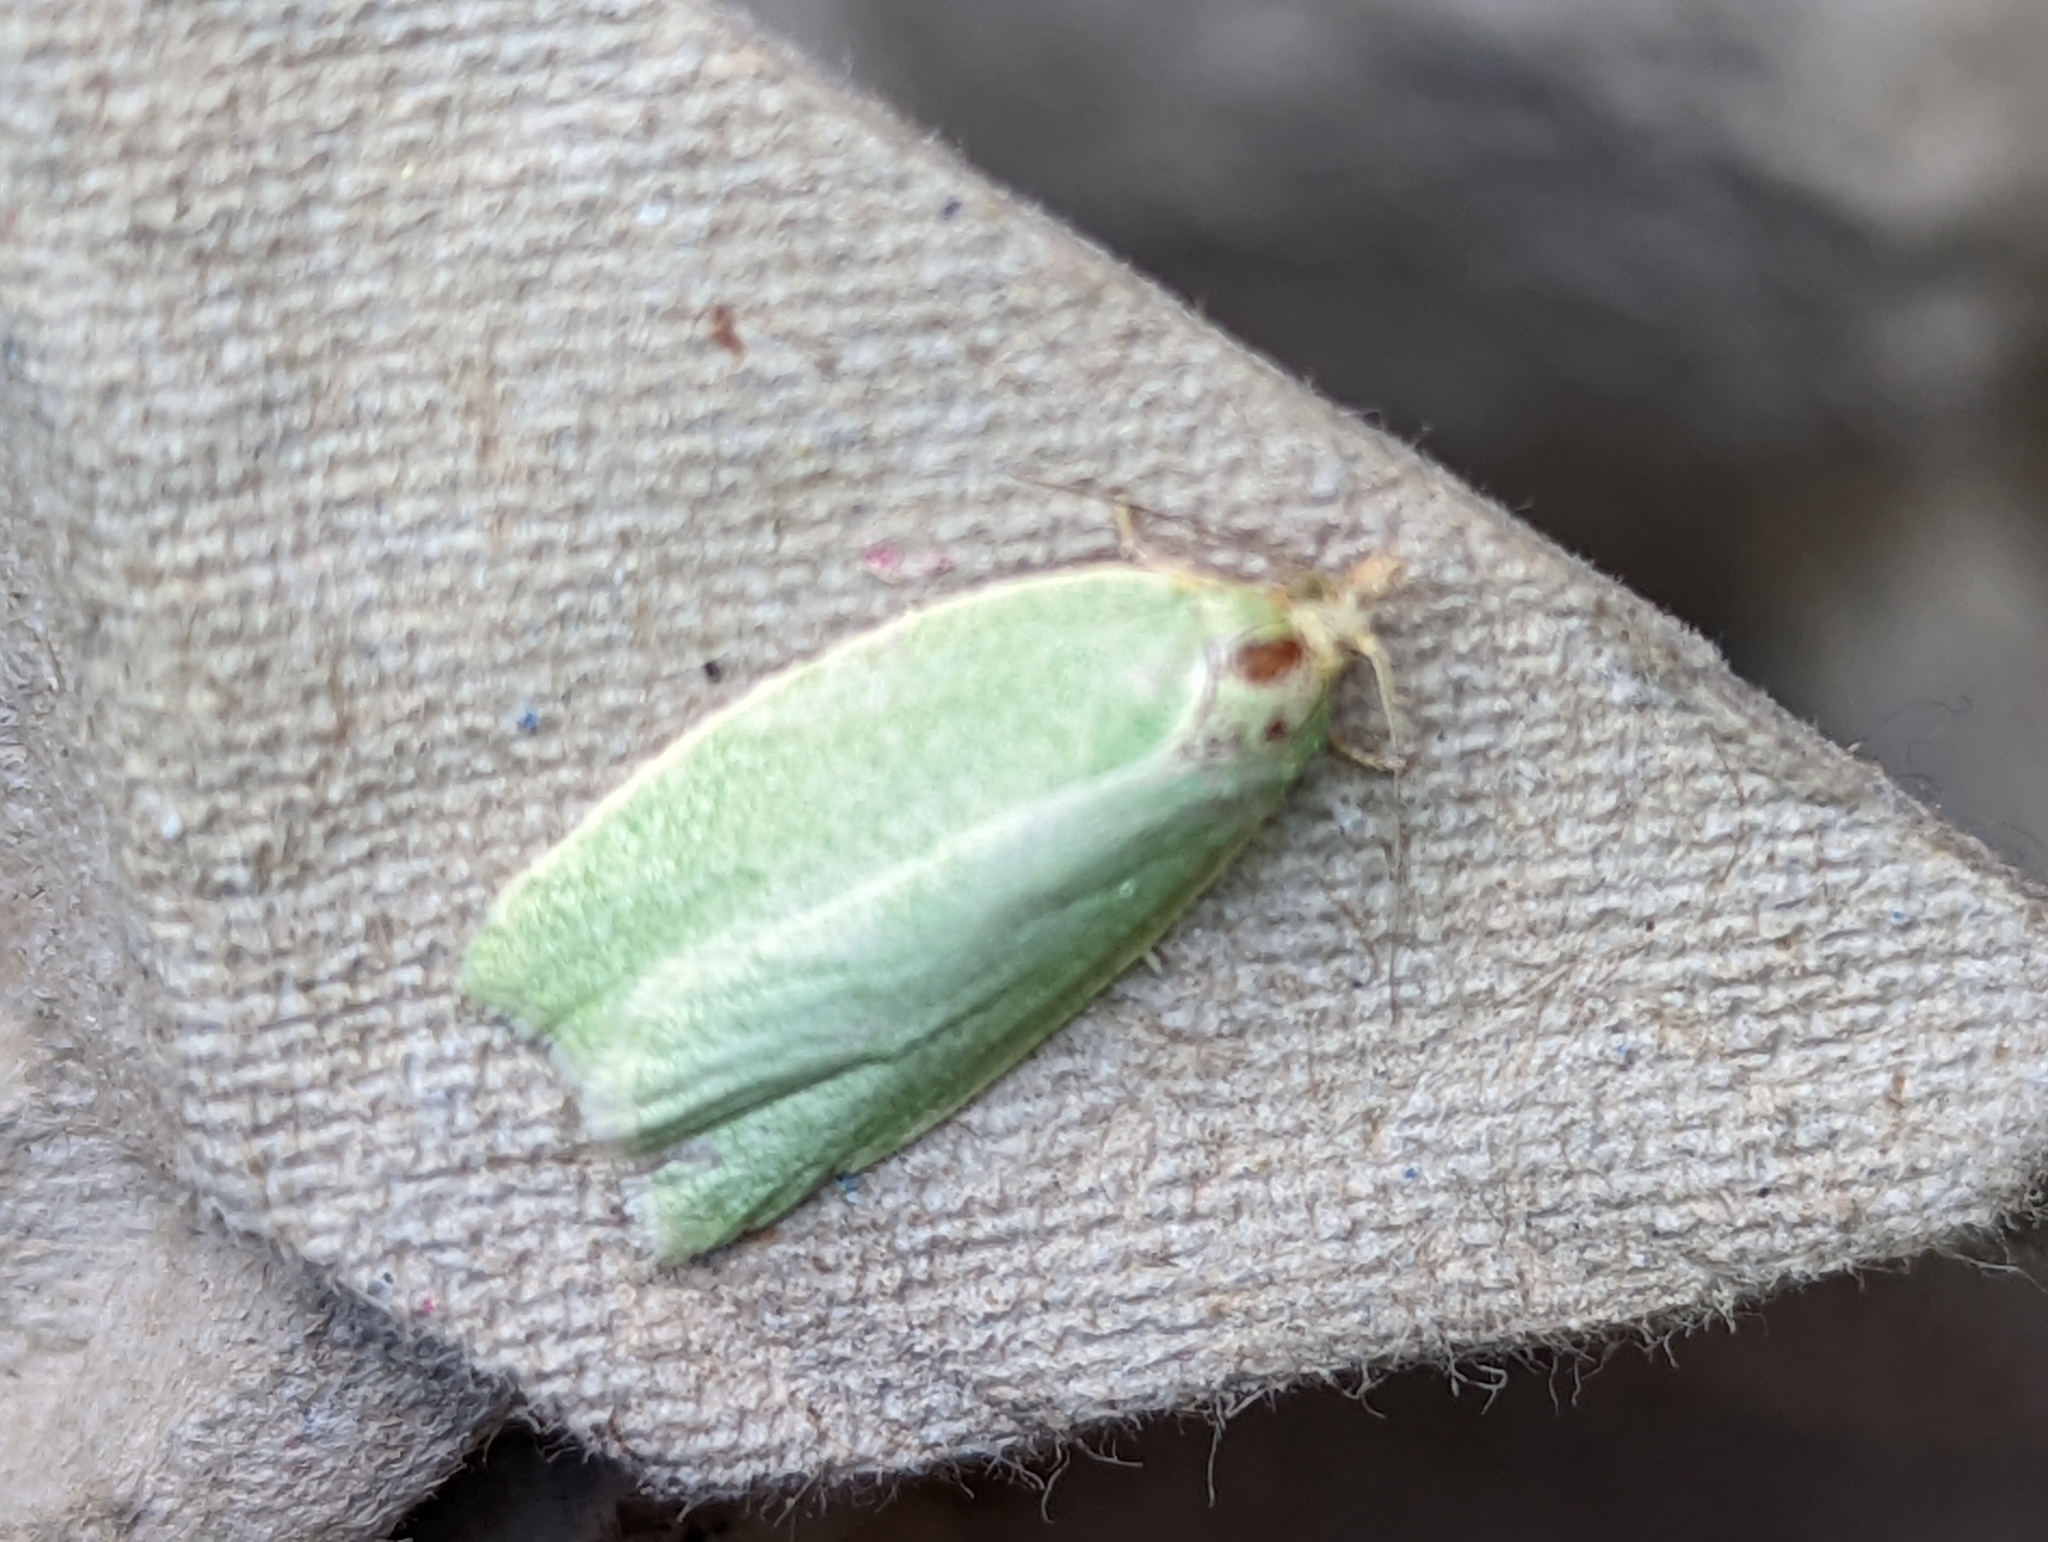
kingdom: Animalia
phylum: Arthropoda
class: Insecta
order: Lepidoptera
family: Tortricidae
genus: Tortrix
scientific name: Tortrix viridana
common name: Green oak tortrix
